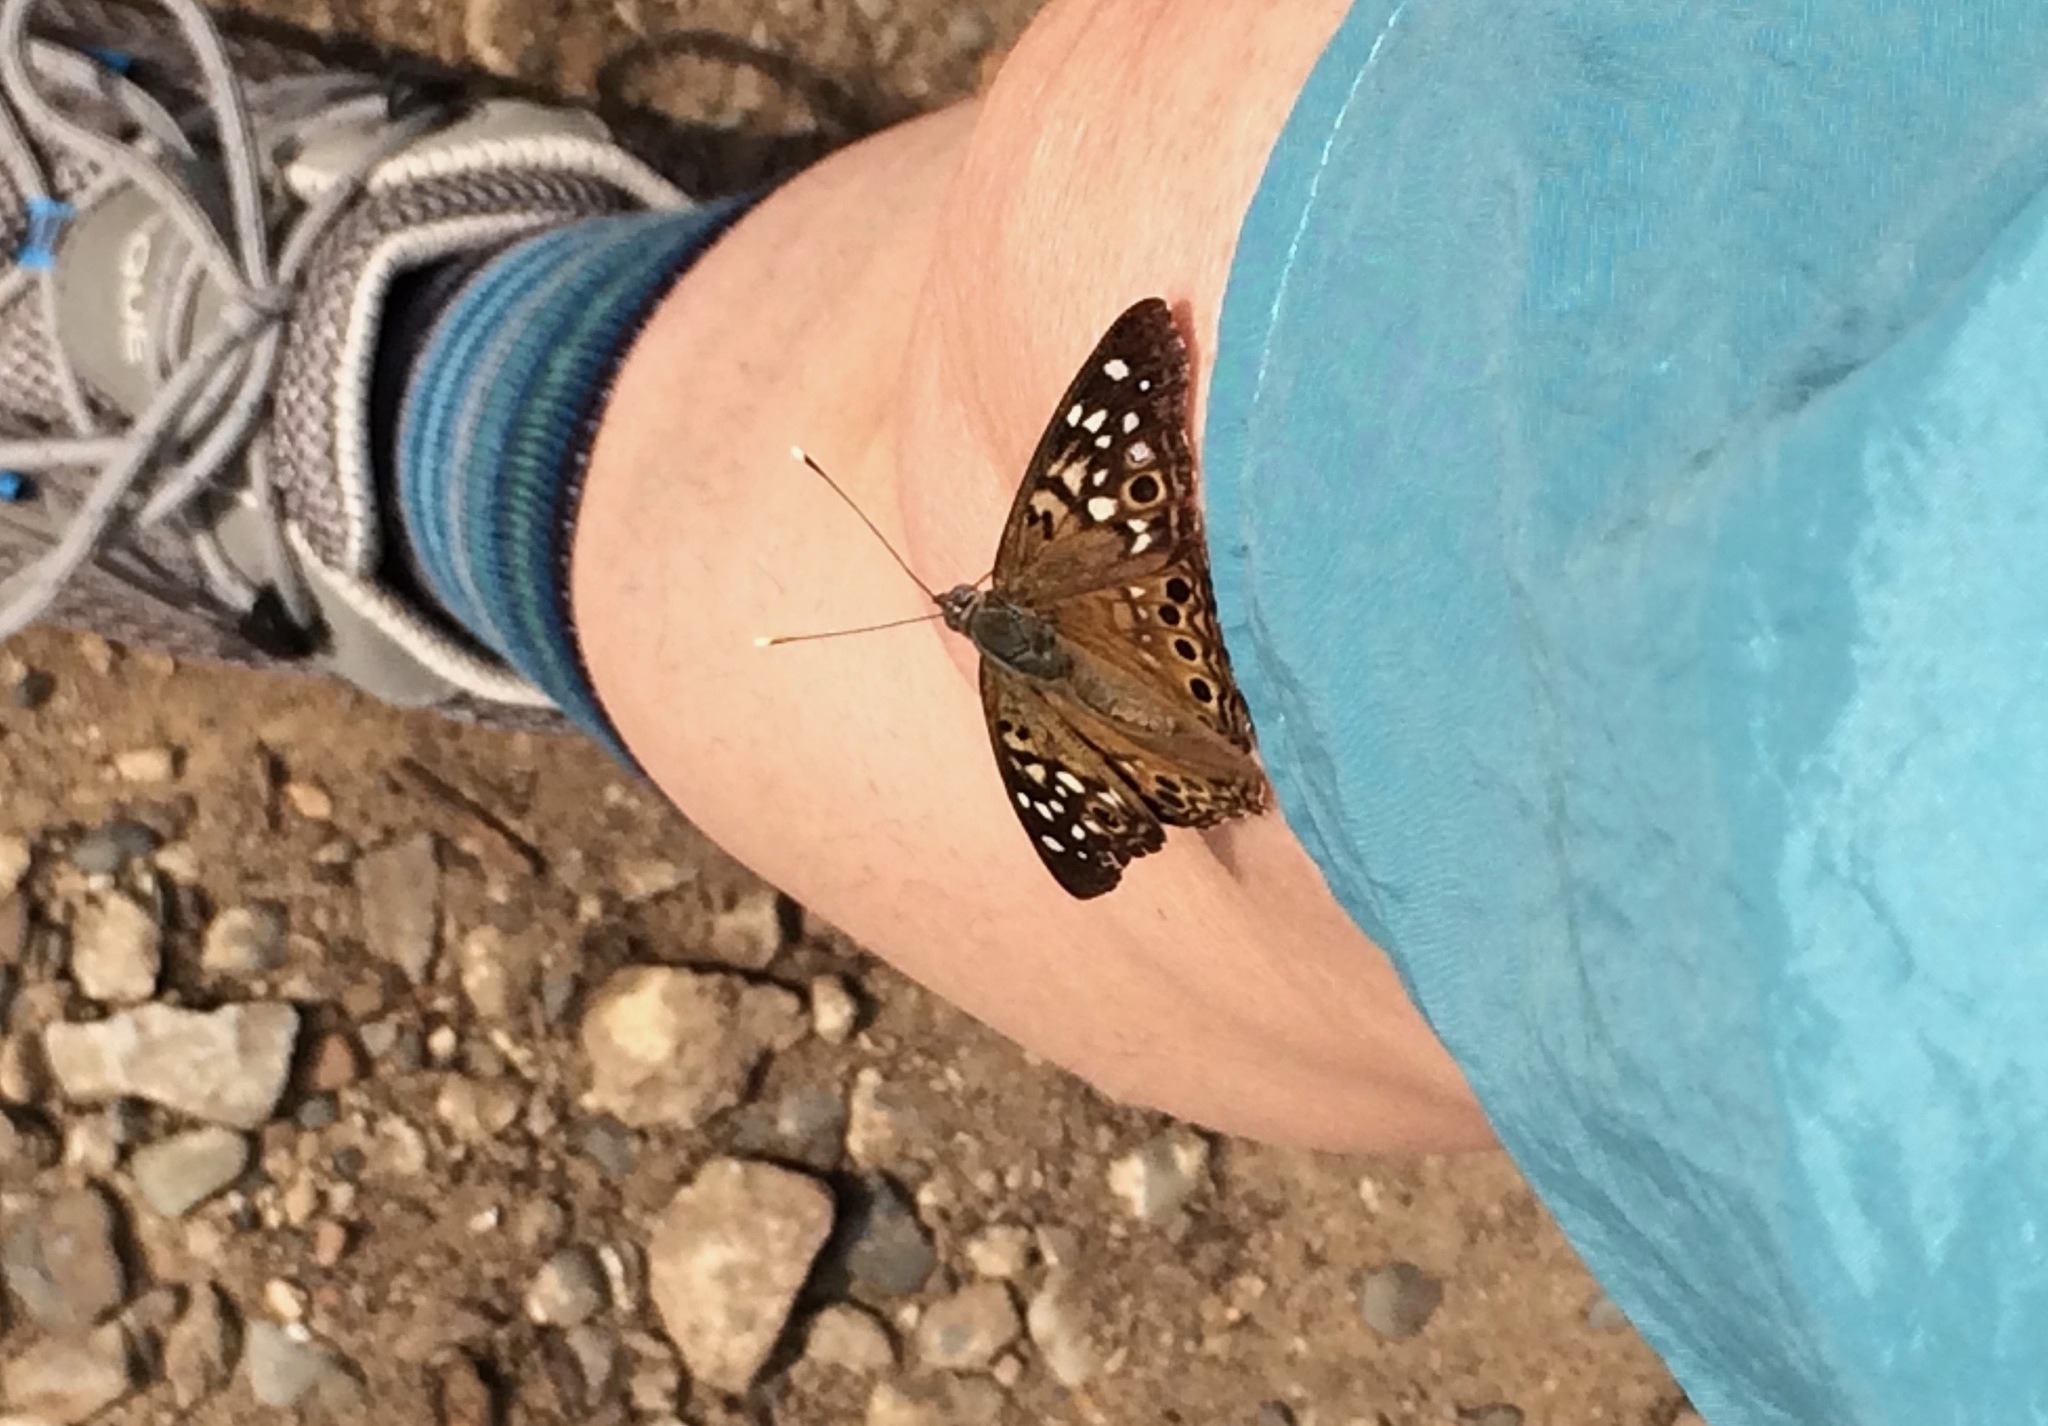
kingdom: Animalia
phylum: Arthropoda
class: Insecta
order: Lepidoptera
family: Nymphalidae
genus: Asterocampa
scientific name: Asterocampa celtis
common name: Hackberry emperor
